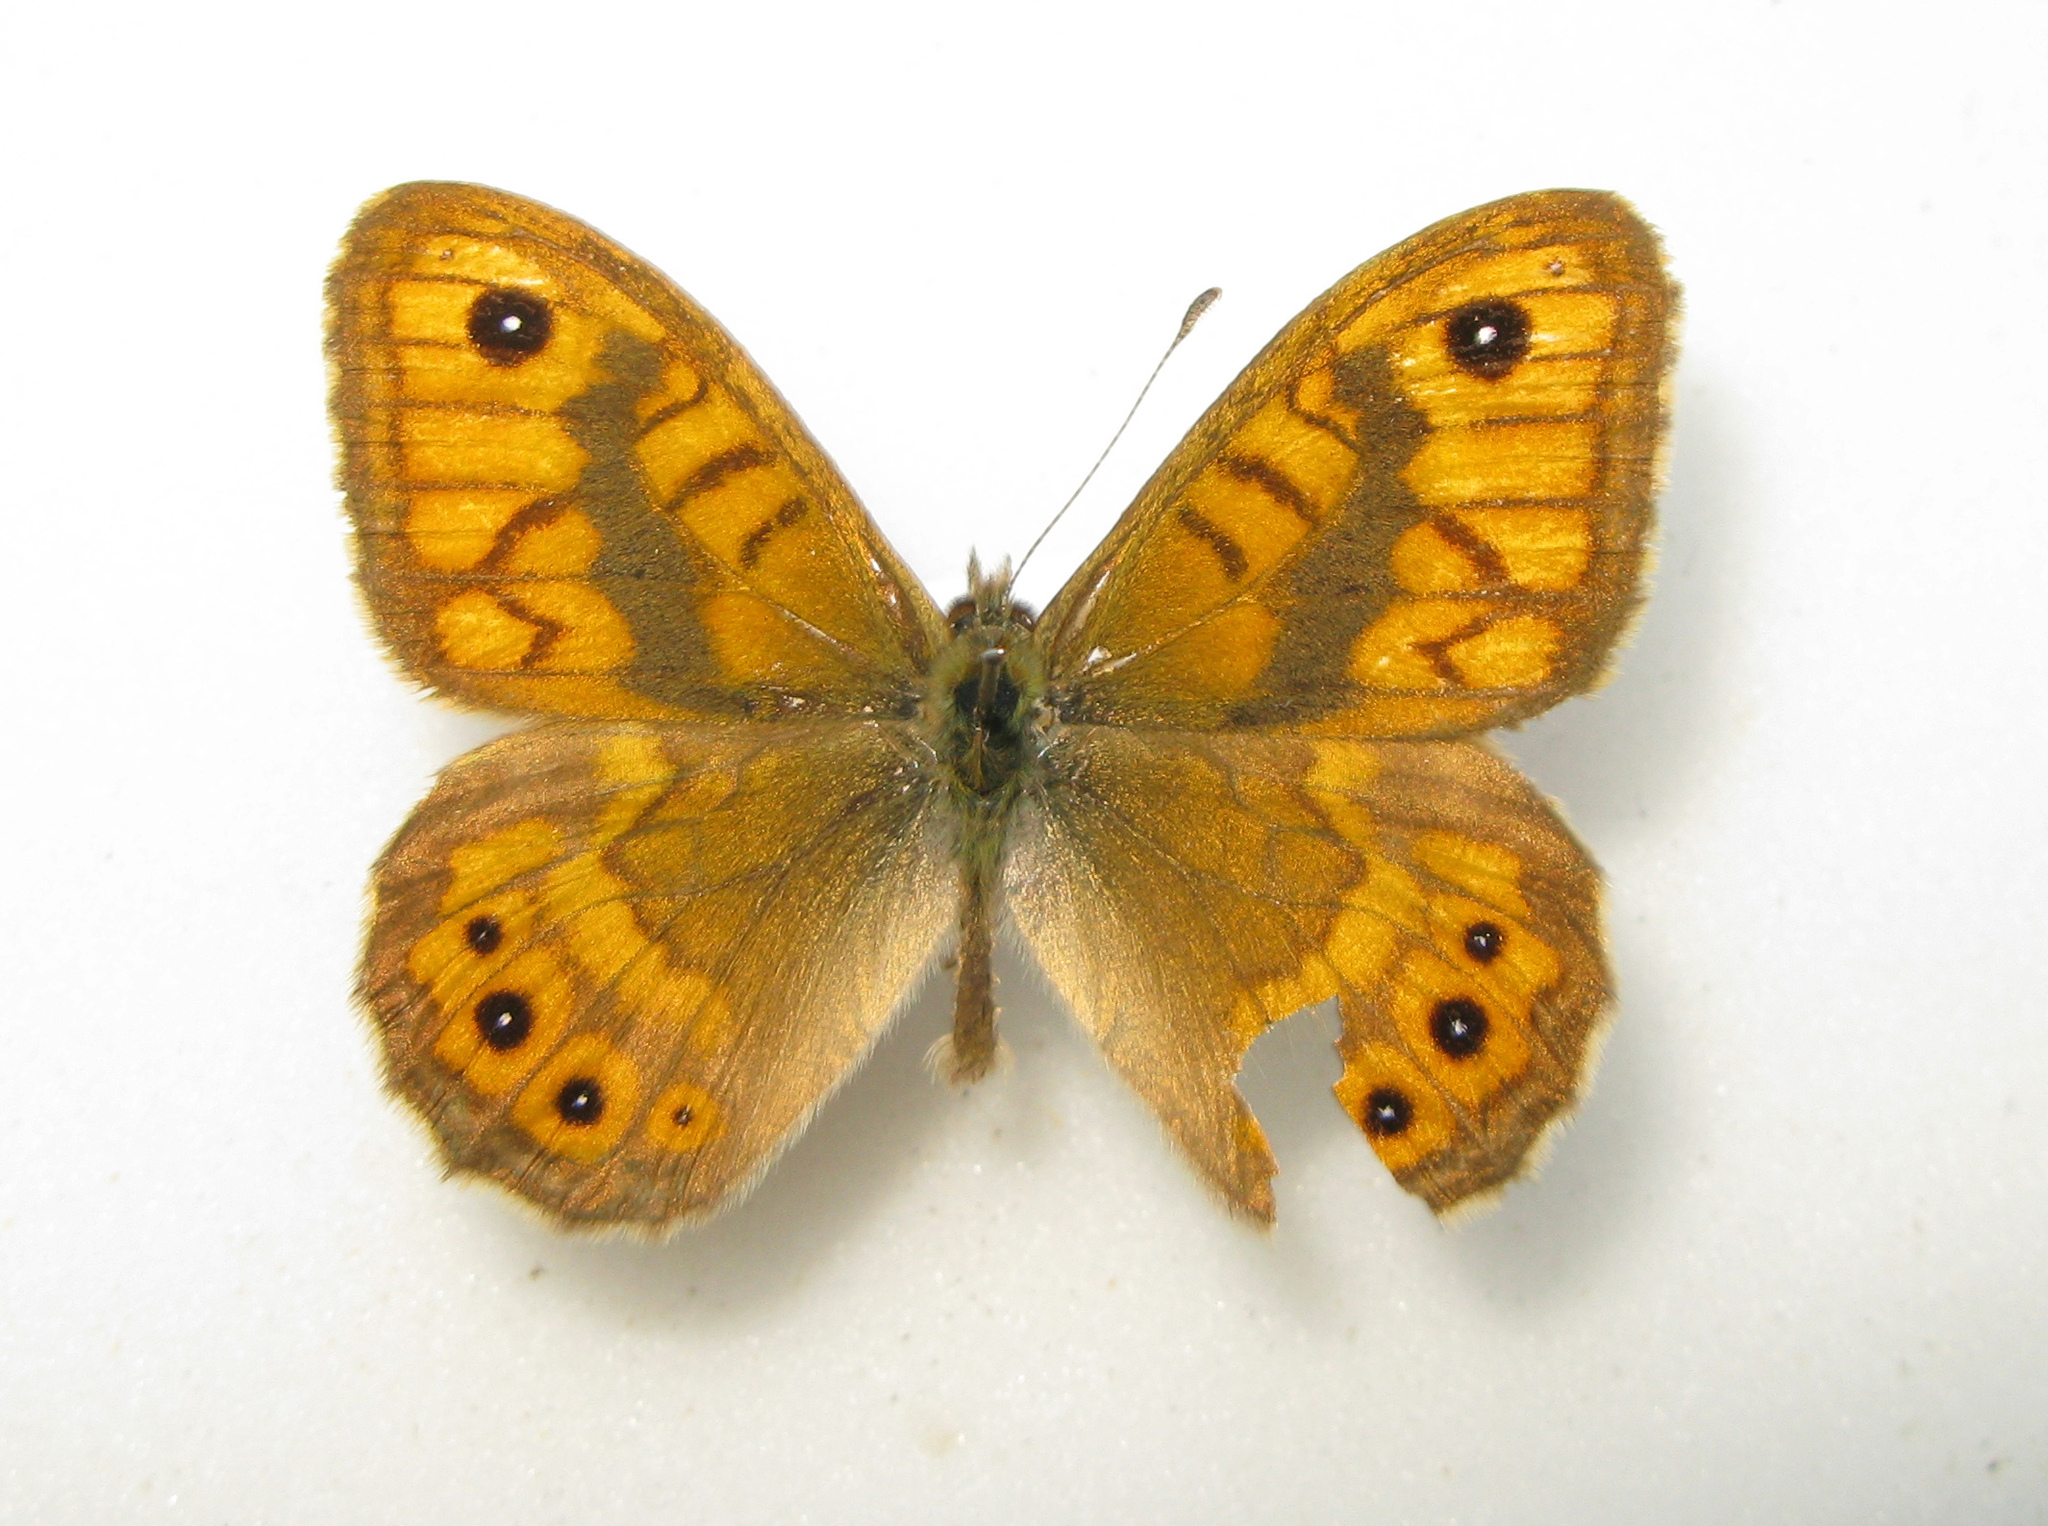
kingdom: Animalia
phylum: Arthropoda
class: Insecta
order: Lepidoptera
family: Nymphalidae
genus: Pararge
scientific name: Pararge Lasiommata megera
